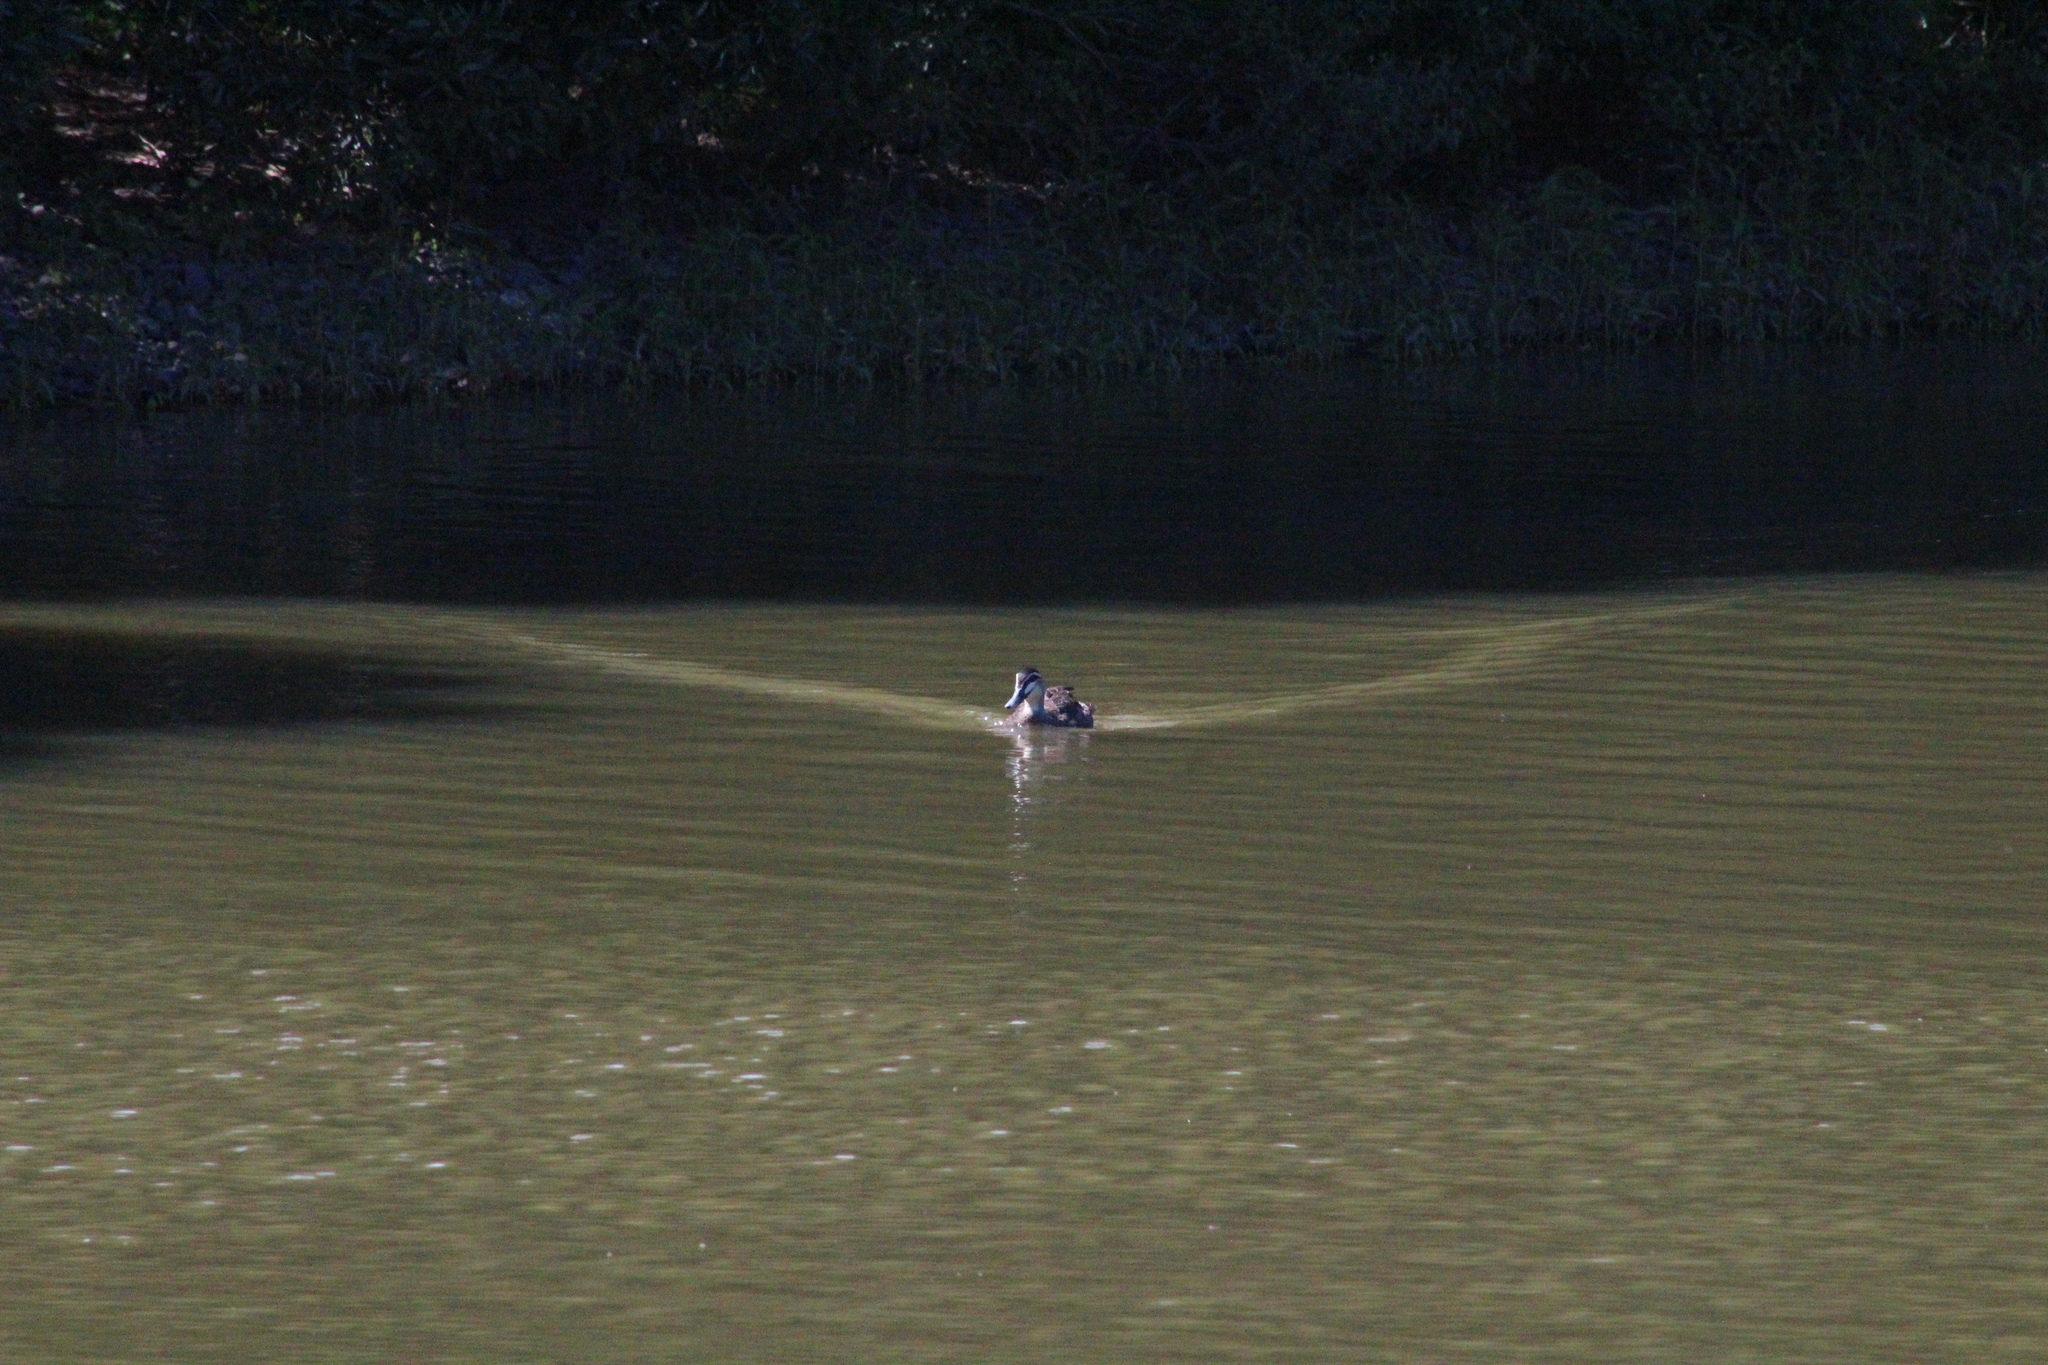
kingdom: Animalia
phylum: Chordata
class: Aves
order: Anseriformes
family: Anatidae
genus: Anas
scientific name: Anas superciliosa
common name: Pacific black duck
